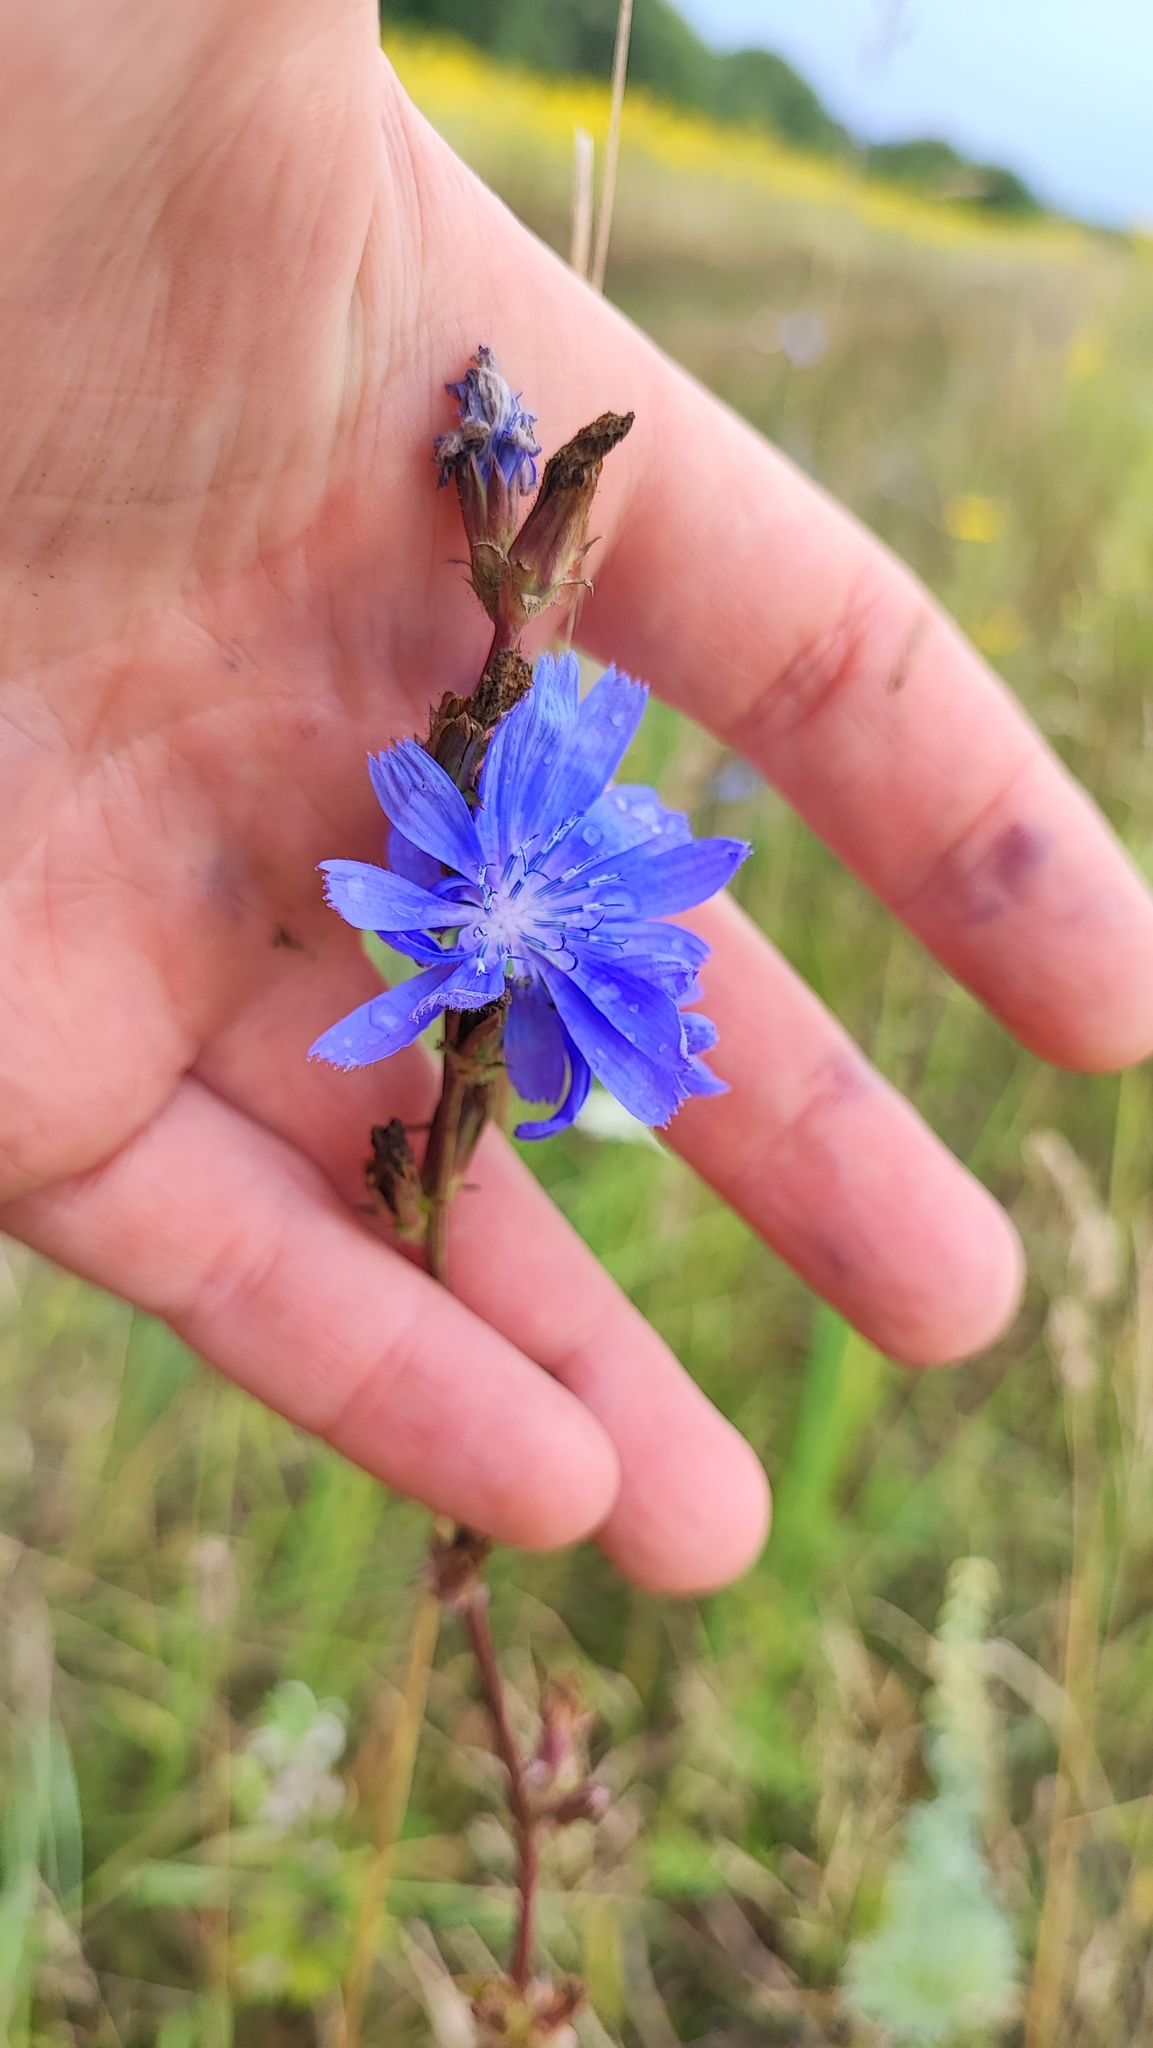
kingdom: Plantae
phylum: Tracheophyta
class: Magnoliopsida
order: Asterales
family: Asteraceae
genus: Cichorium
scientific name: Cichorium intybus
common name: Chicory
